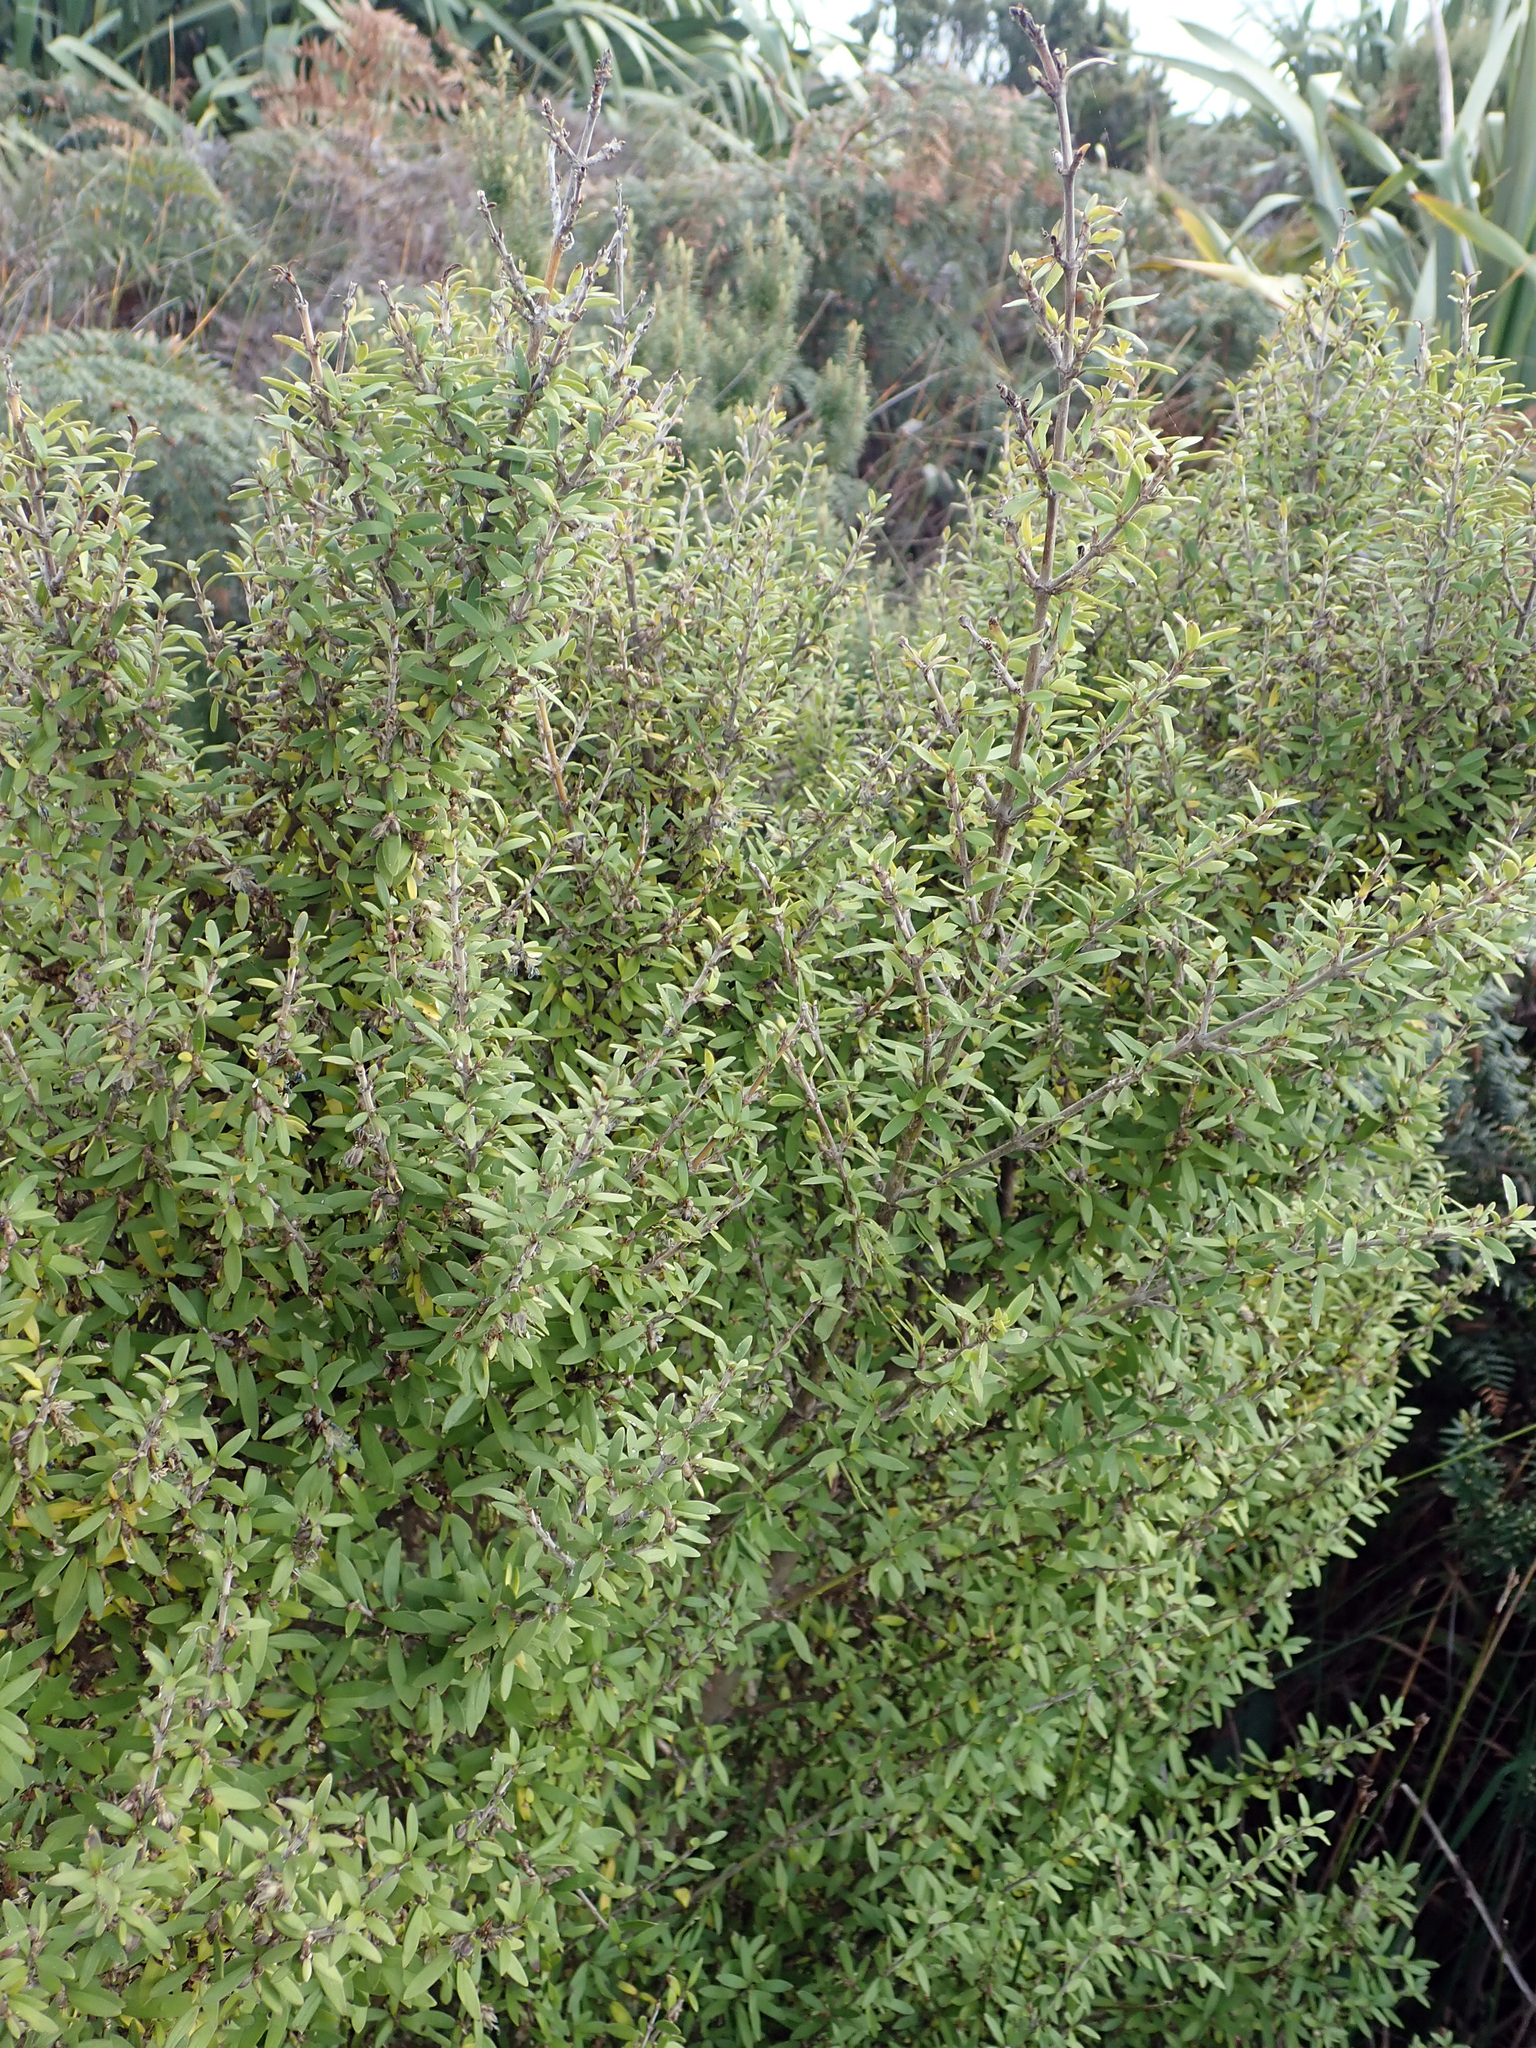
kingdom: Plantae
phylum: Tracheophyta
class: Magnoliopsida
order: Gentianales
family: Rubiaceae
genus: Coprosma
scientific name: Coprosma propinqua
